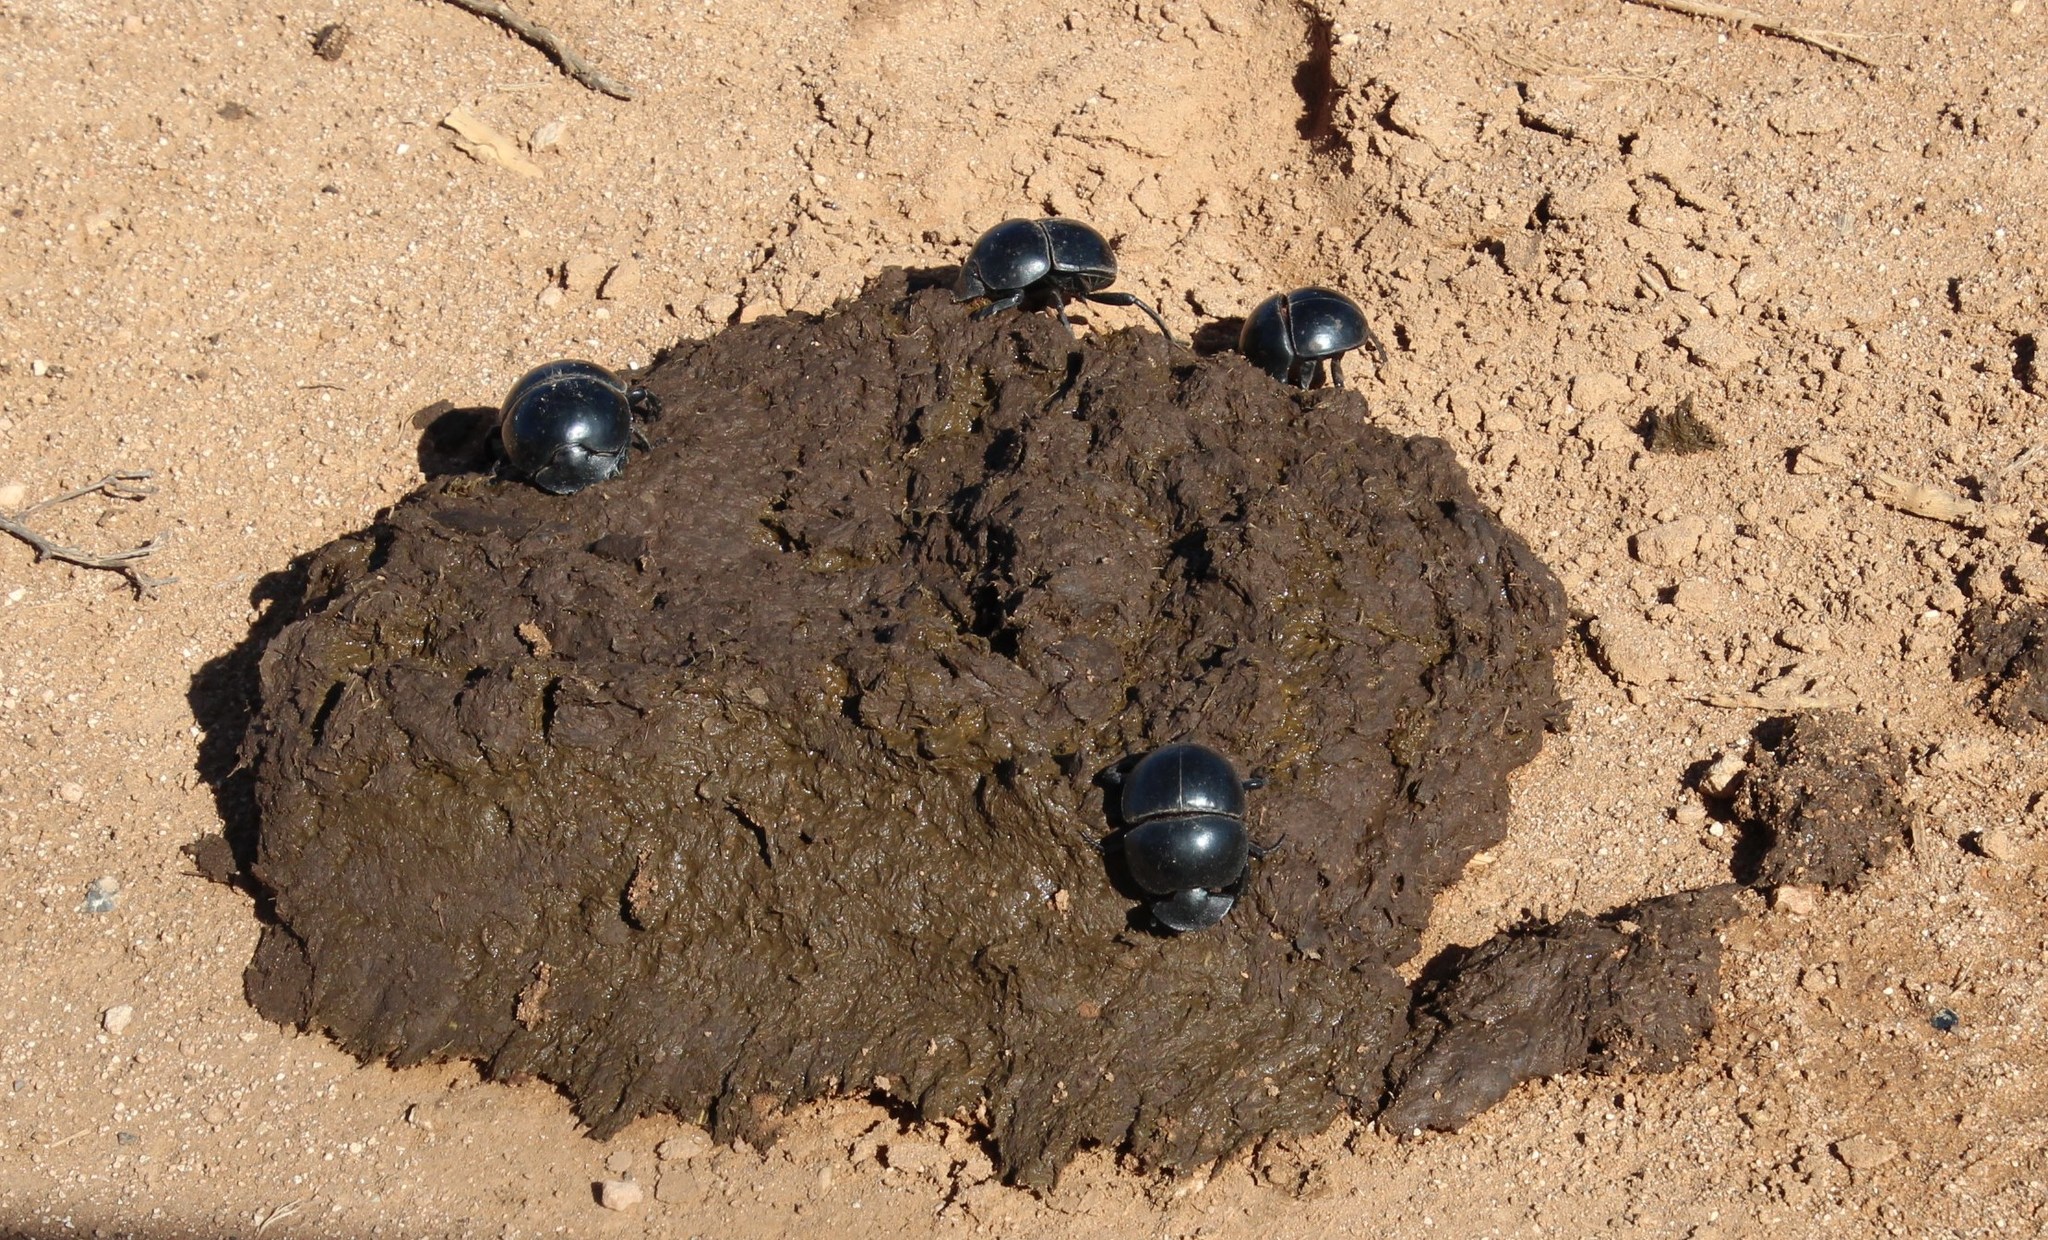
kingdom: Animalia
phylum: Arthropoda
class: Insecta
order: Coleoptera
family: Scarabaeidae
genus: Circellium
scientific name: Circellium bacchus
